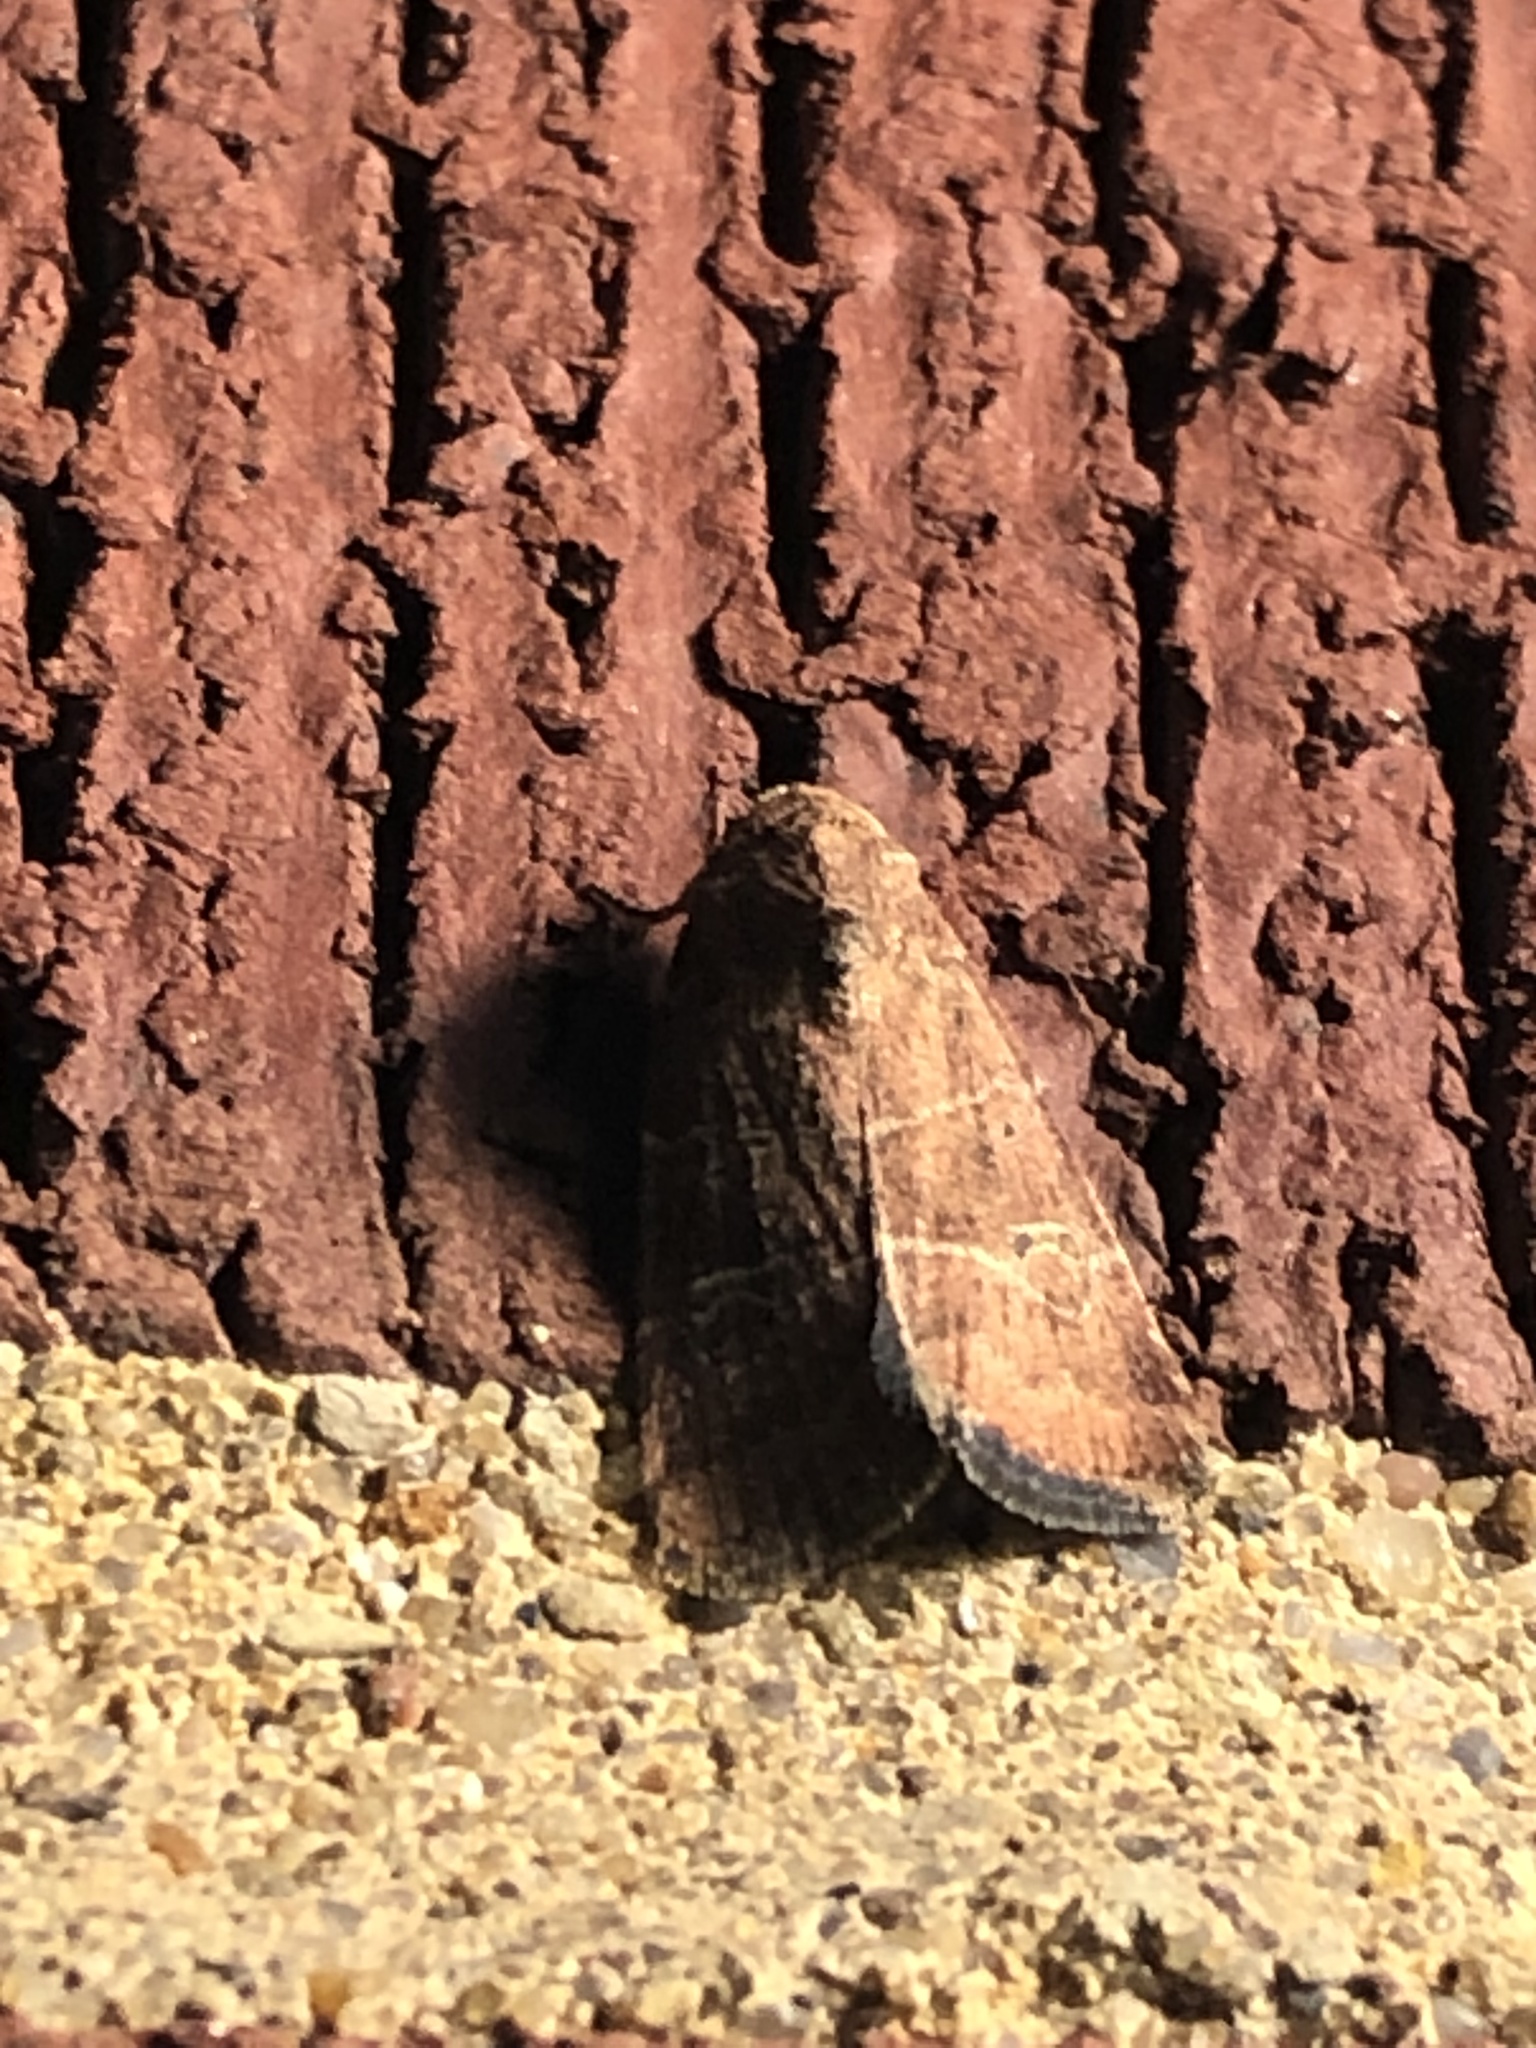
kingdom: Animalia
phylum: Arthropoda
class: Insecta
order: Lepidoptera
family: Noctuidae
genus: Elaphria
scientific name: Elaphria grata
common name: Grateful midget moth
